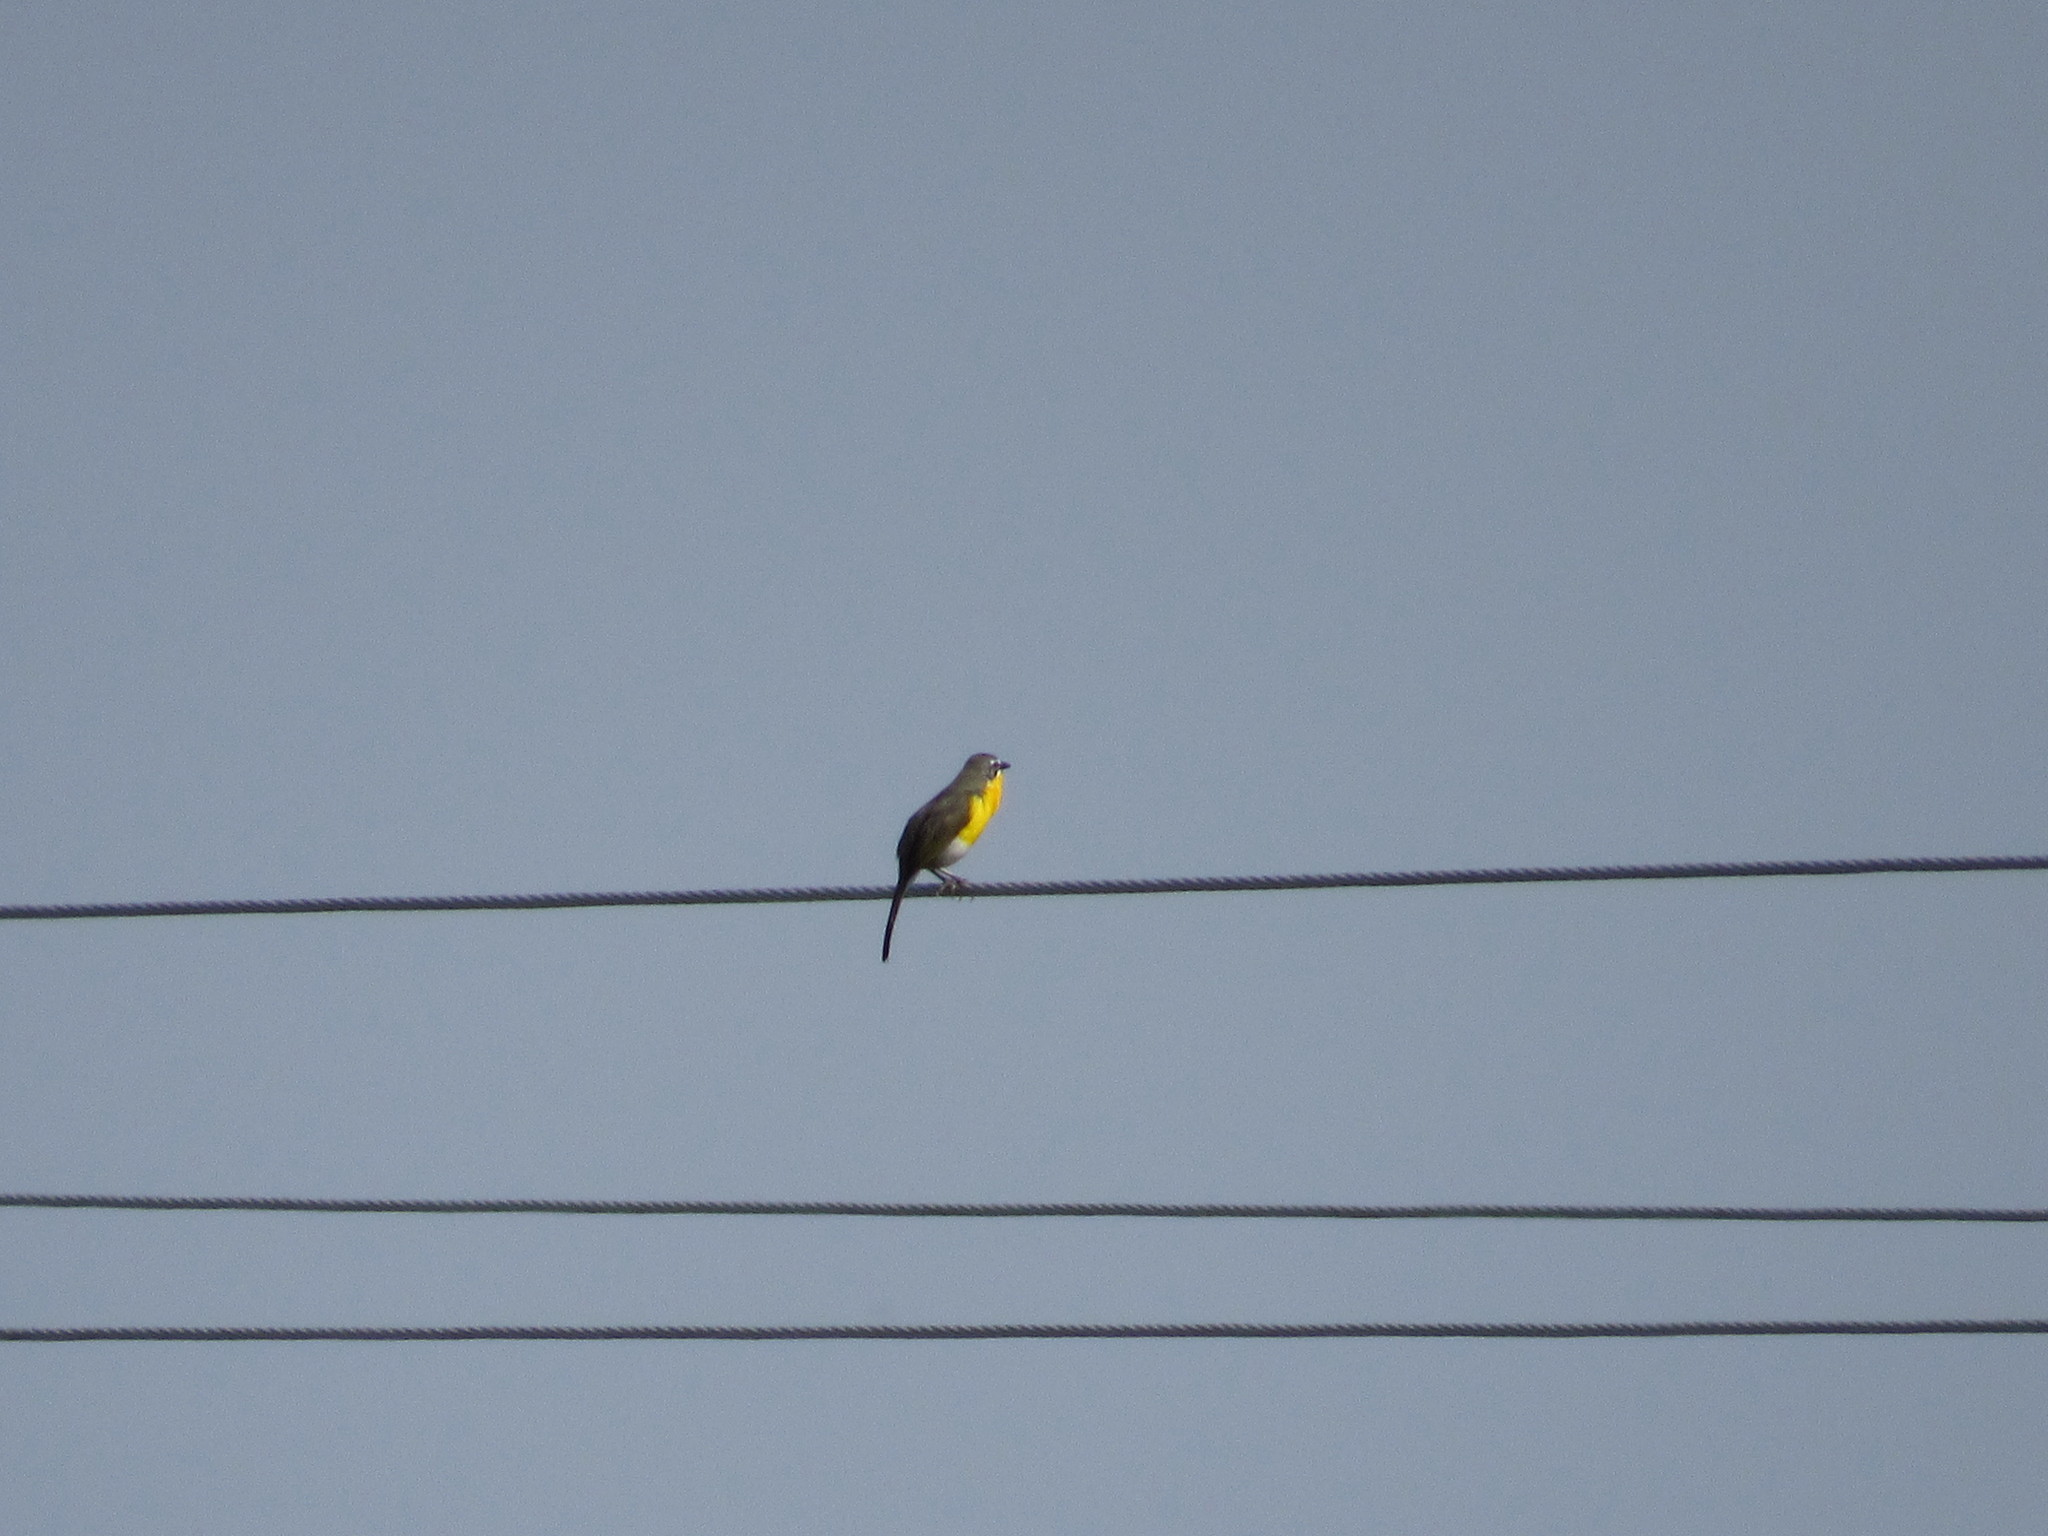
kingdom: Animalia
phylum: Chordata
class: Aves
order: Passeriformes
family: Parulidae
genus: Icteria
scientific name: Icteria virens
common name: Yellow-breasted chat
